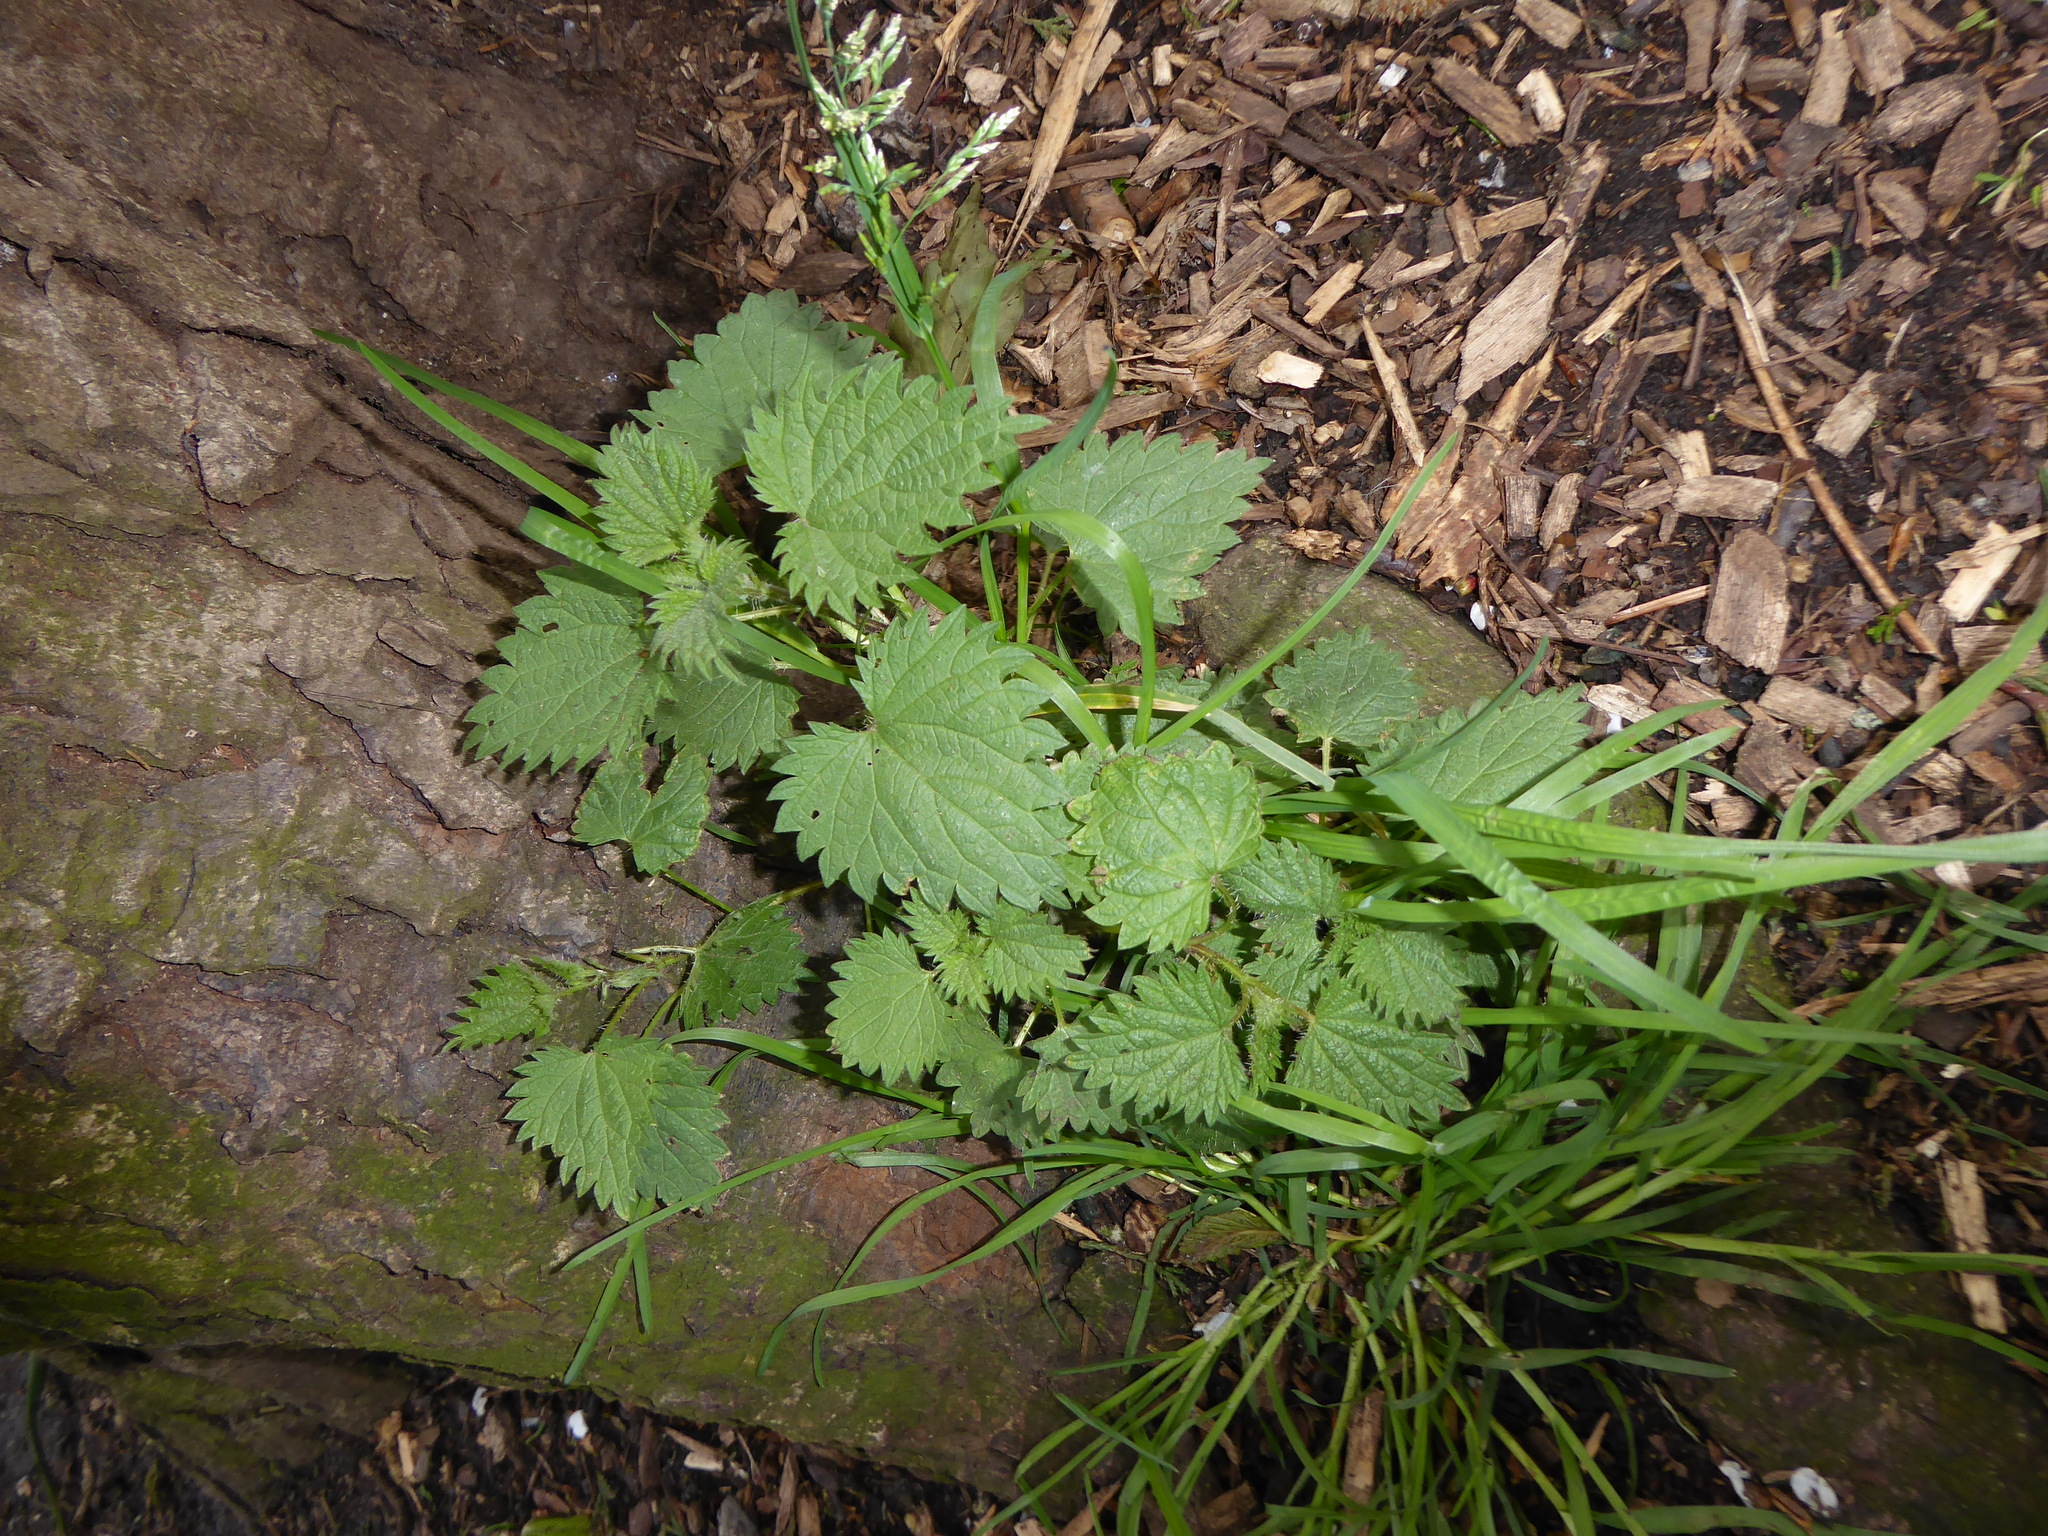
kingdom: Plantae
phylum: Tracheophyta
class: Magnoliopsida
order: Rosales
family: Urticaceae
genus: Urtica
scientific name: Urtica dioica
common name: Common nettle
